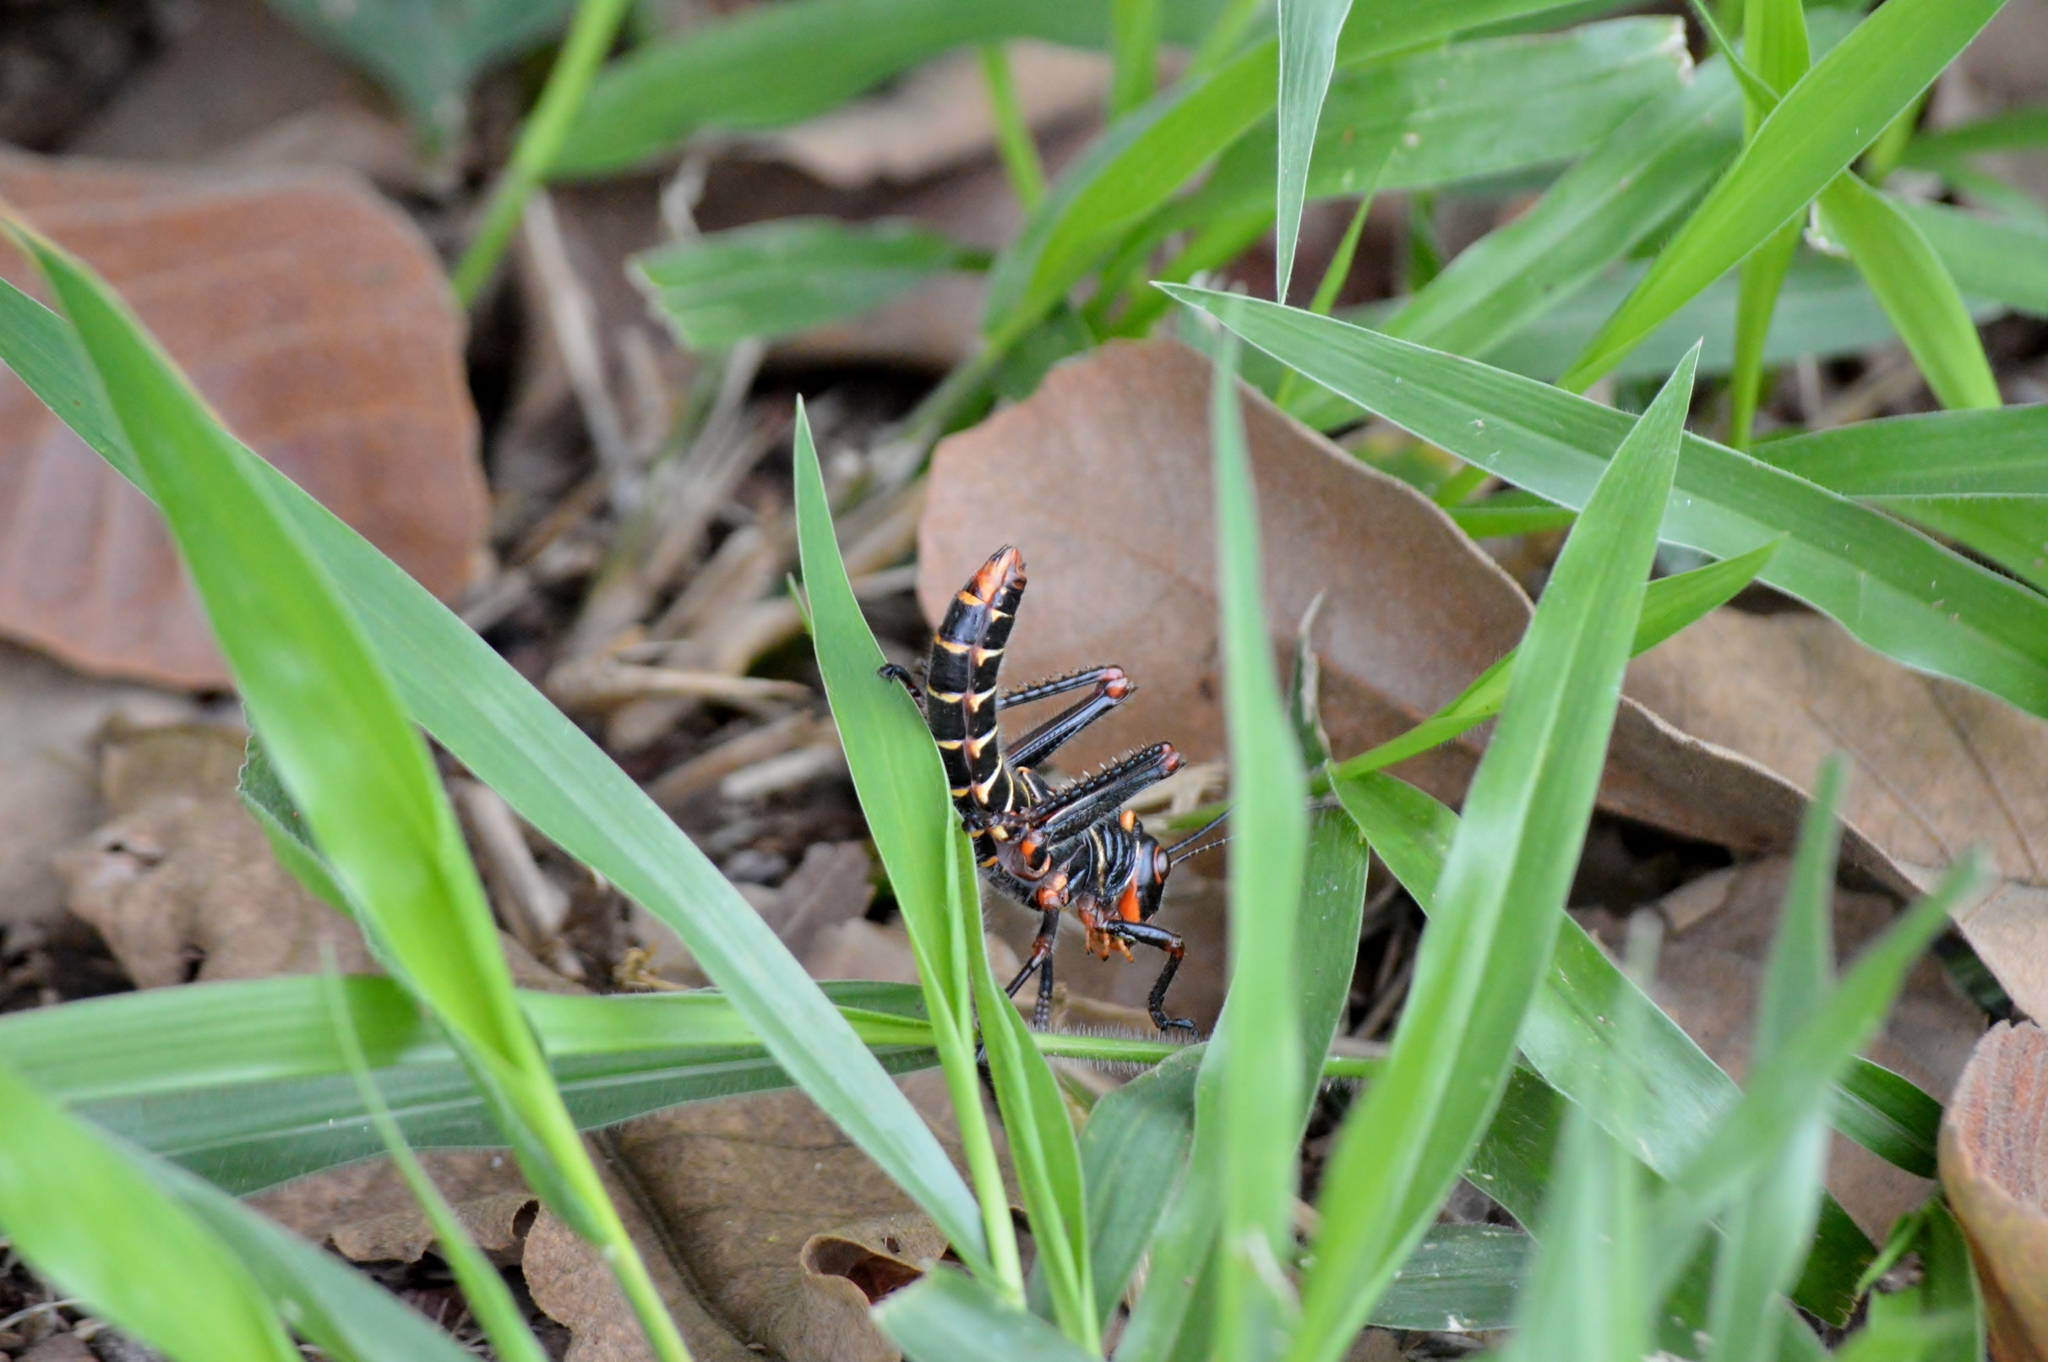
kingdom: Animalia
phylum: Arthropoda
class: Insecta
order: Orthoptera
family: Romaleidae
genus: Tropidacris
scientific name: Tropidacris collaris
